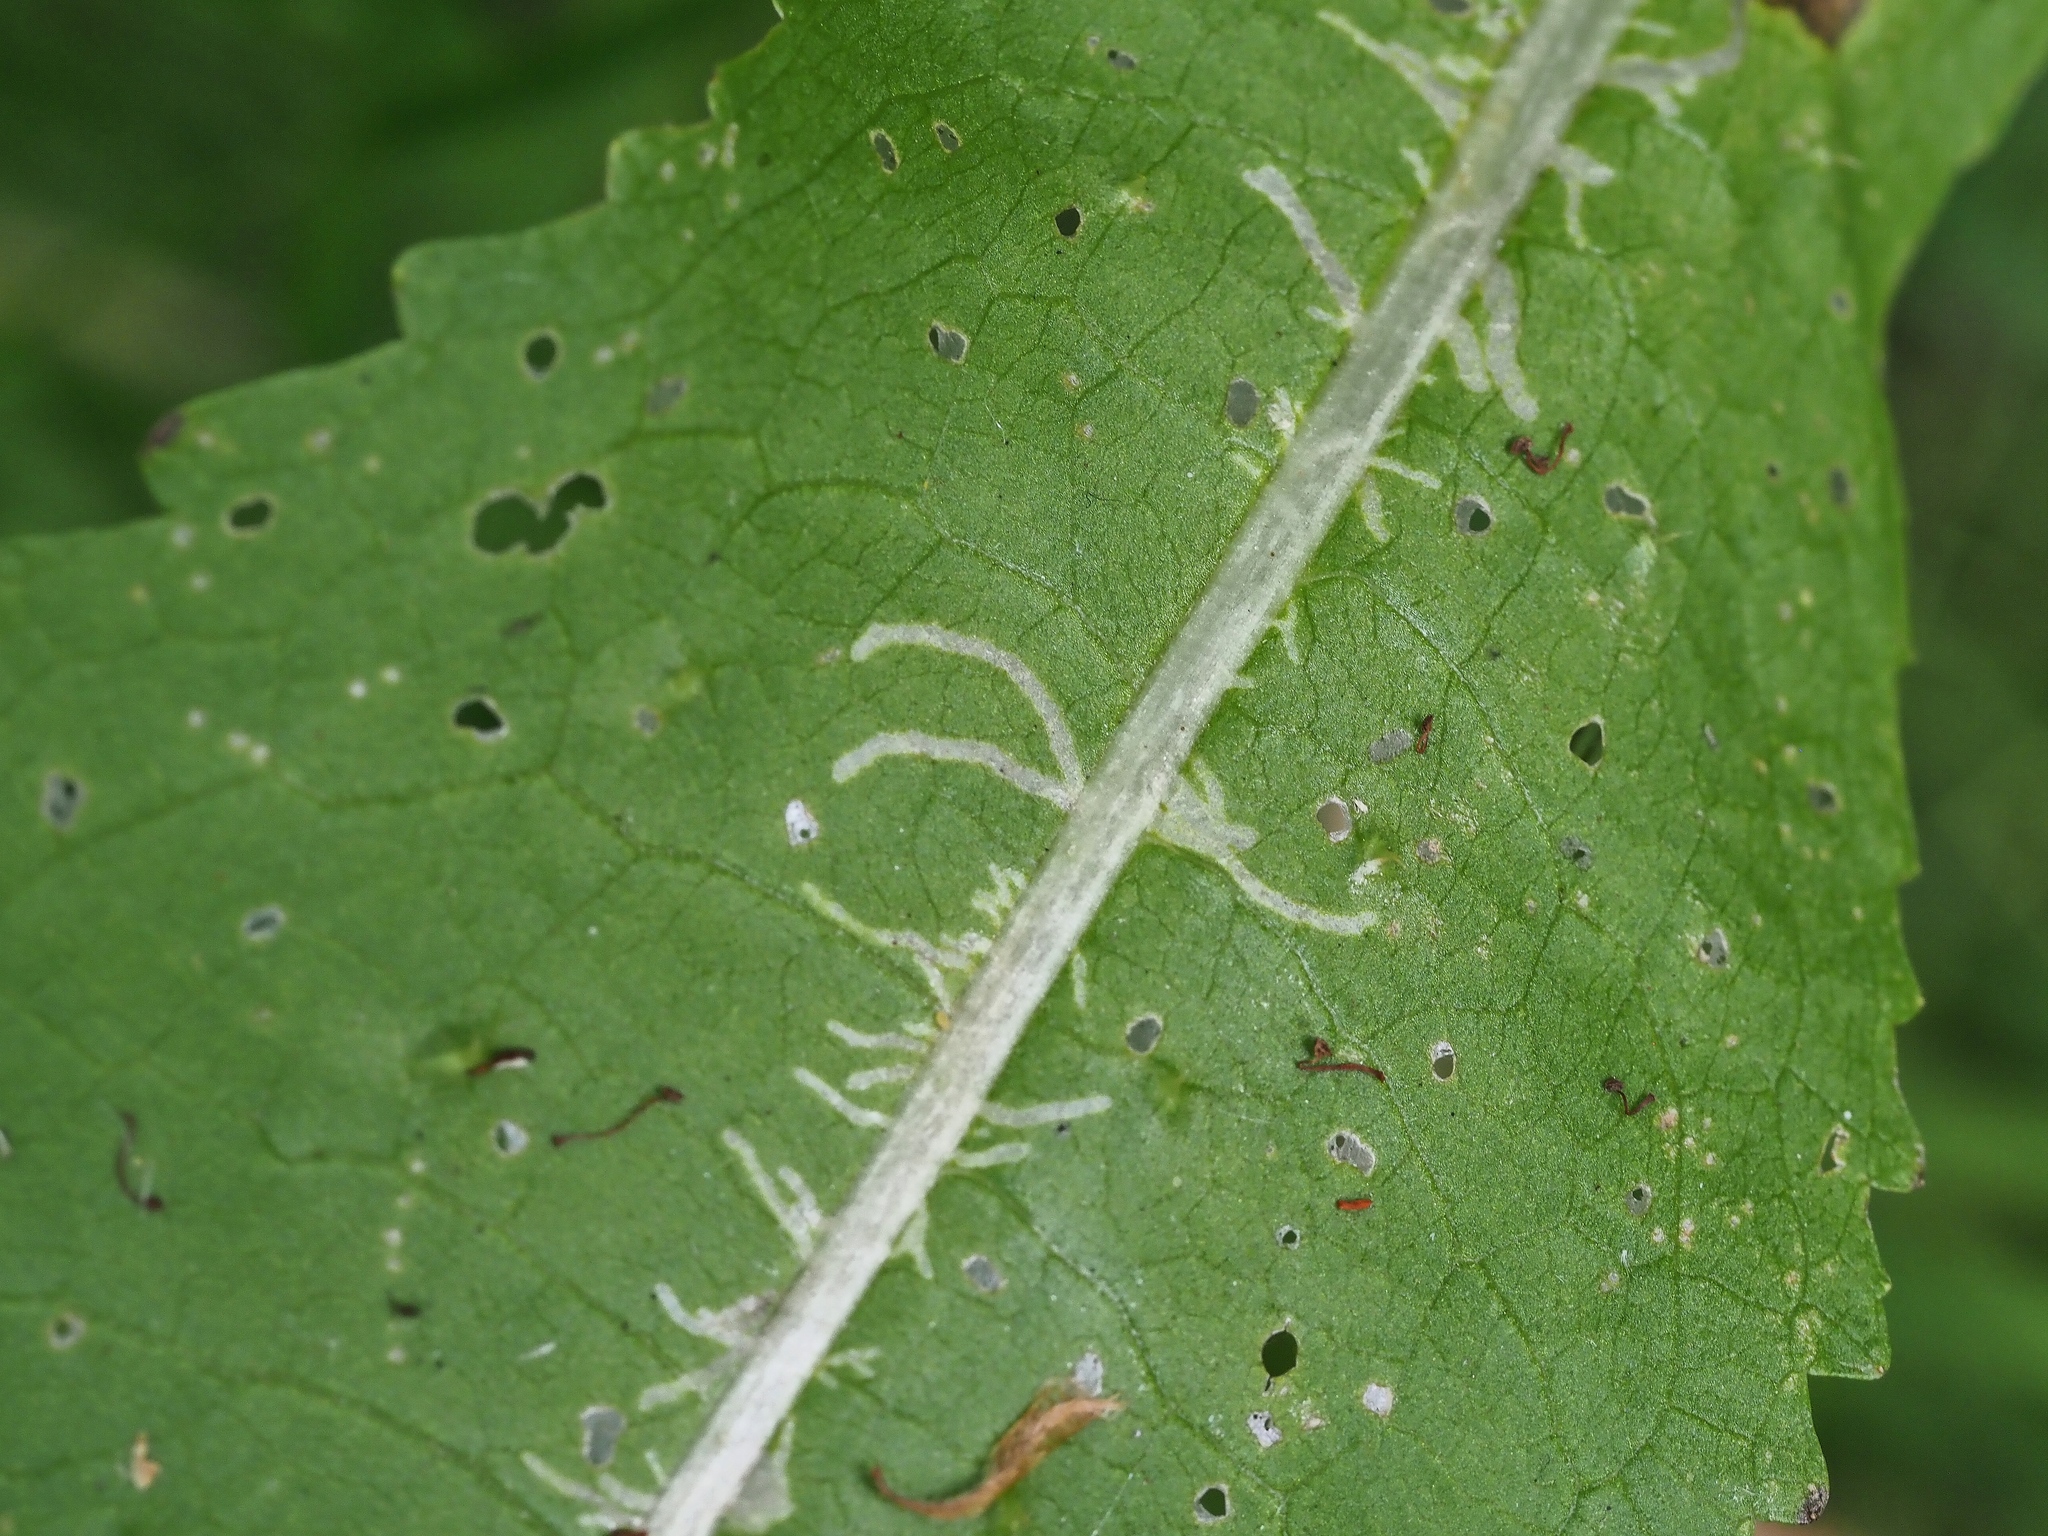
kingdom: Animalia
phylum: Arthropoda
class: Insecta
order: Diptera
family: Agromyzidae
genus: Phytomyza
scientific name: Phytomyza nigritella
